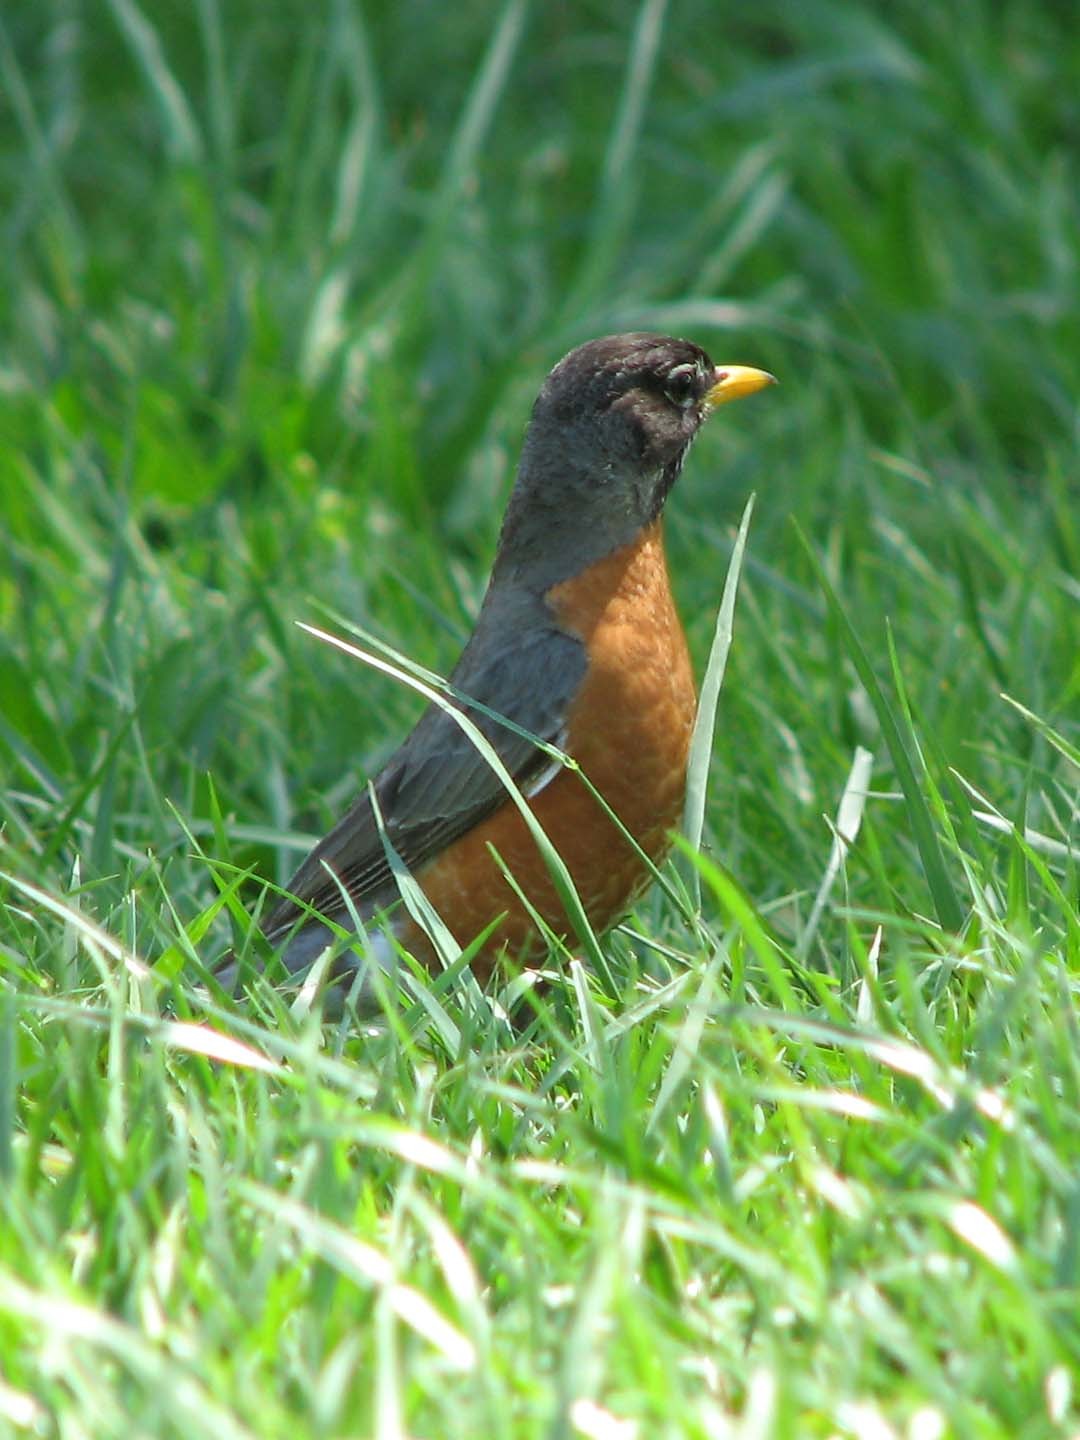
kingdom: Animalia
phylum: Chordata
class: Aves
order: Passeriformes
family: Turdidae
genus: Turdus
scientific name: Turdus migratorius
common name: American robin
